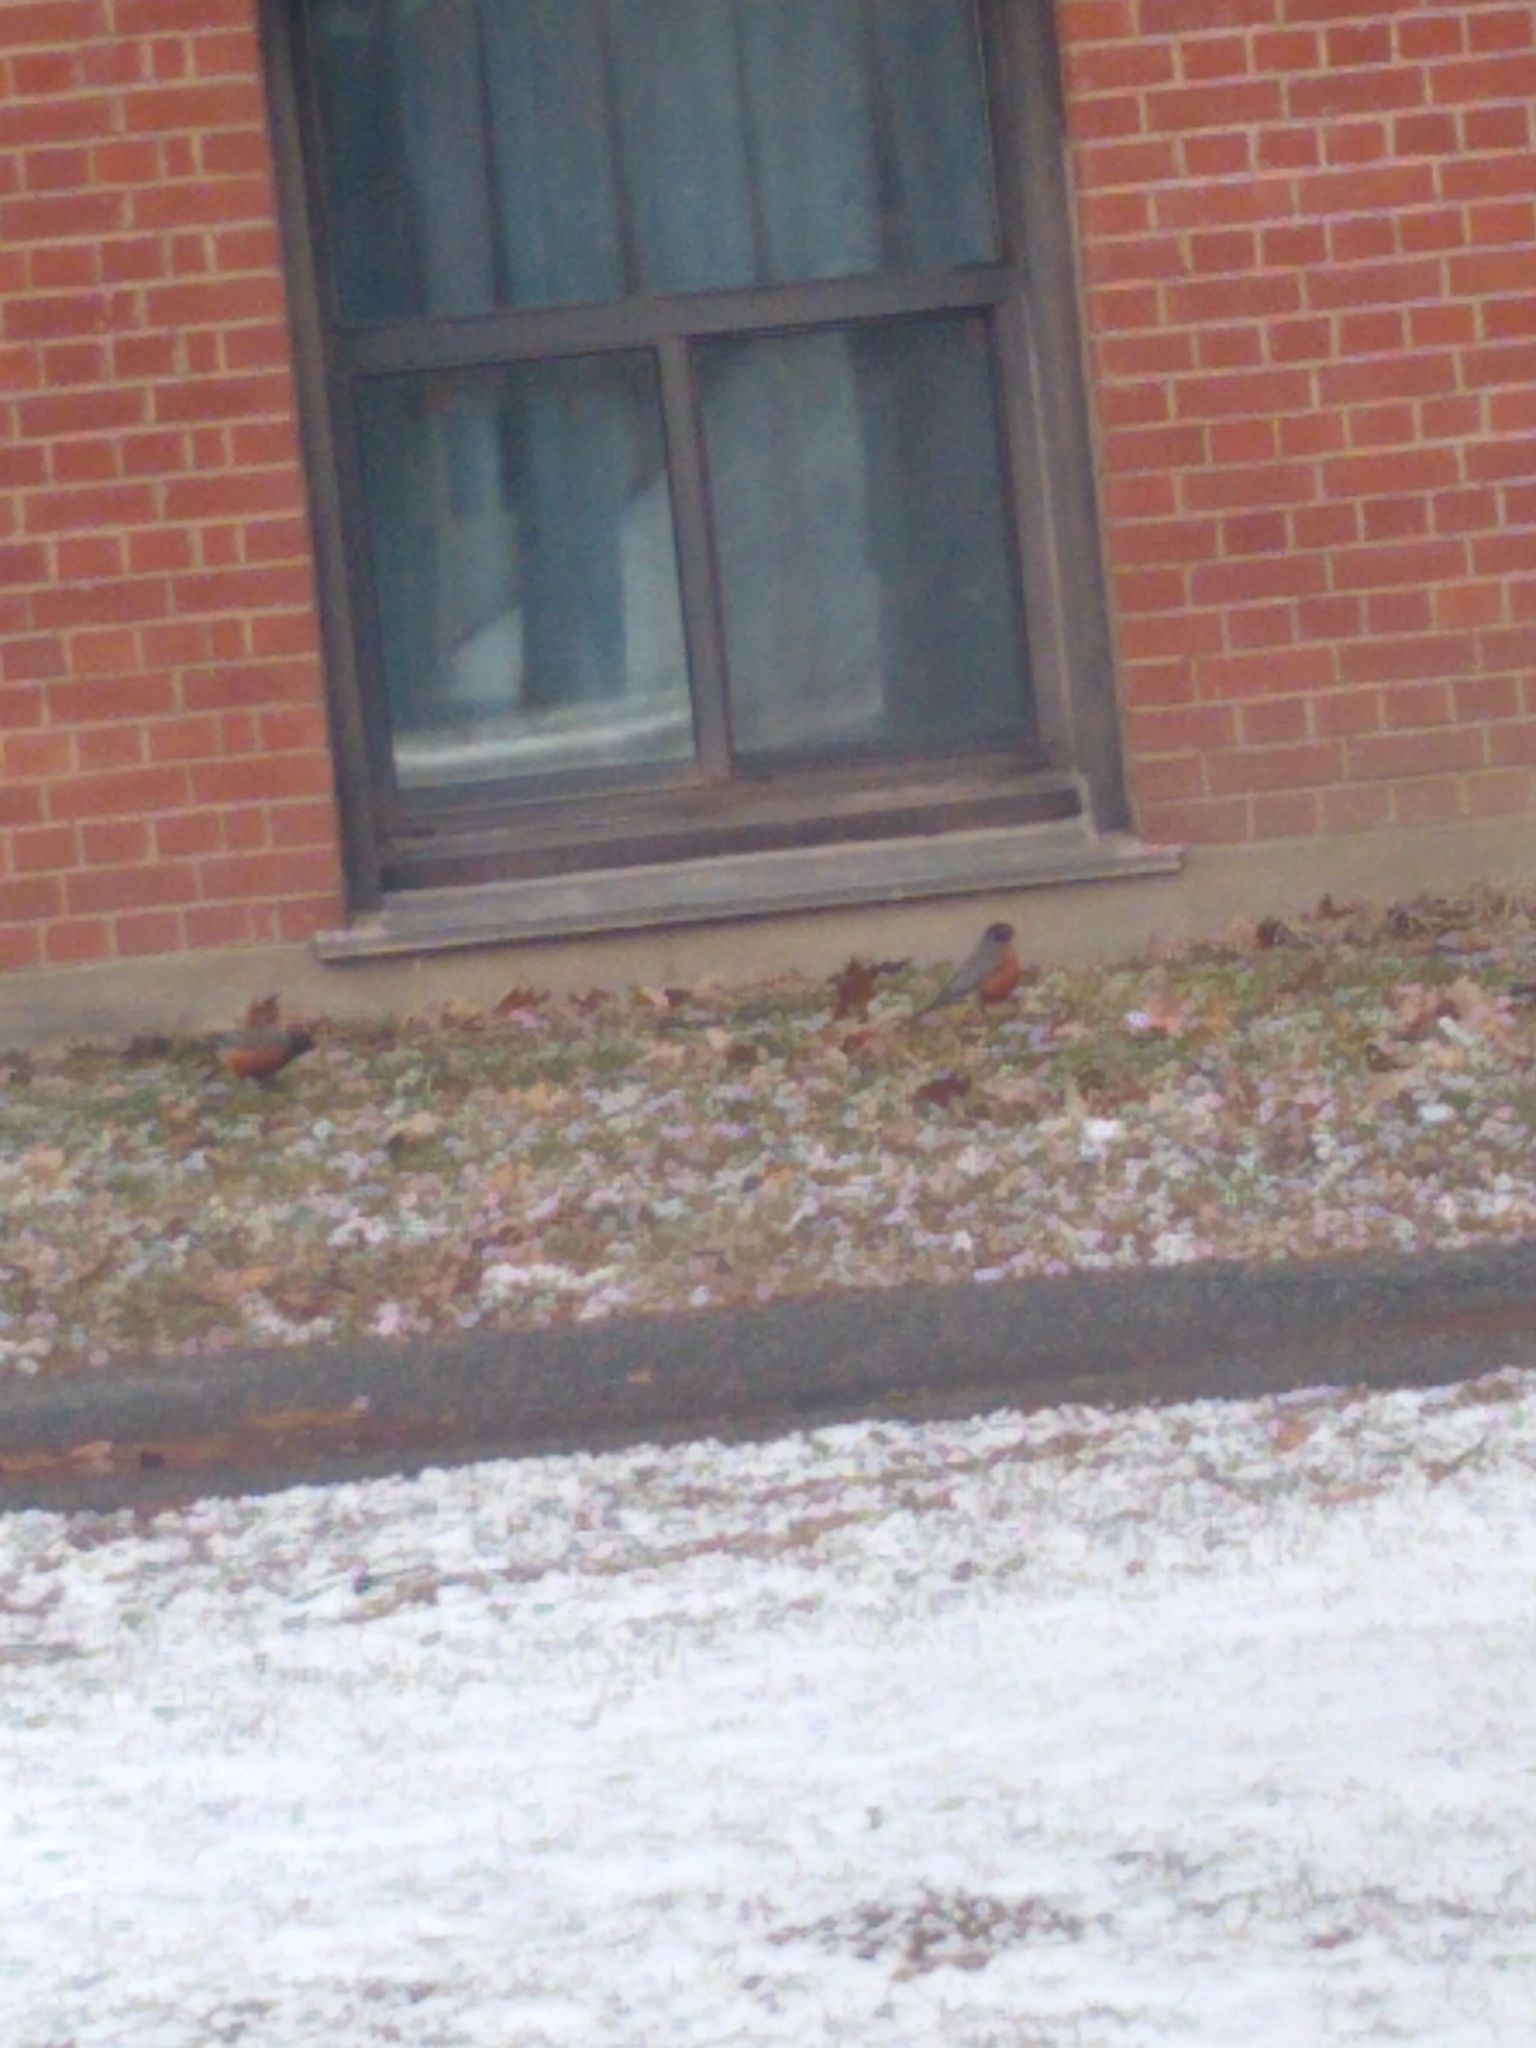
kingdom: Animalia
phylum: Chordata
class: Aves
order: Passeriformes
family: Turdidae
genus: Turdus
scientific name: Turdus migratorius
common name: American robin
